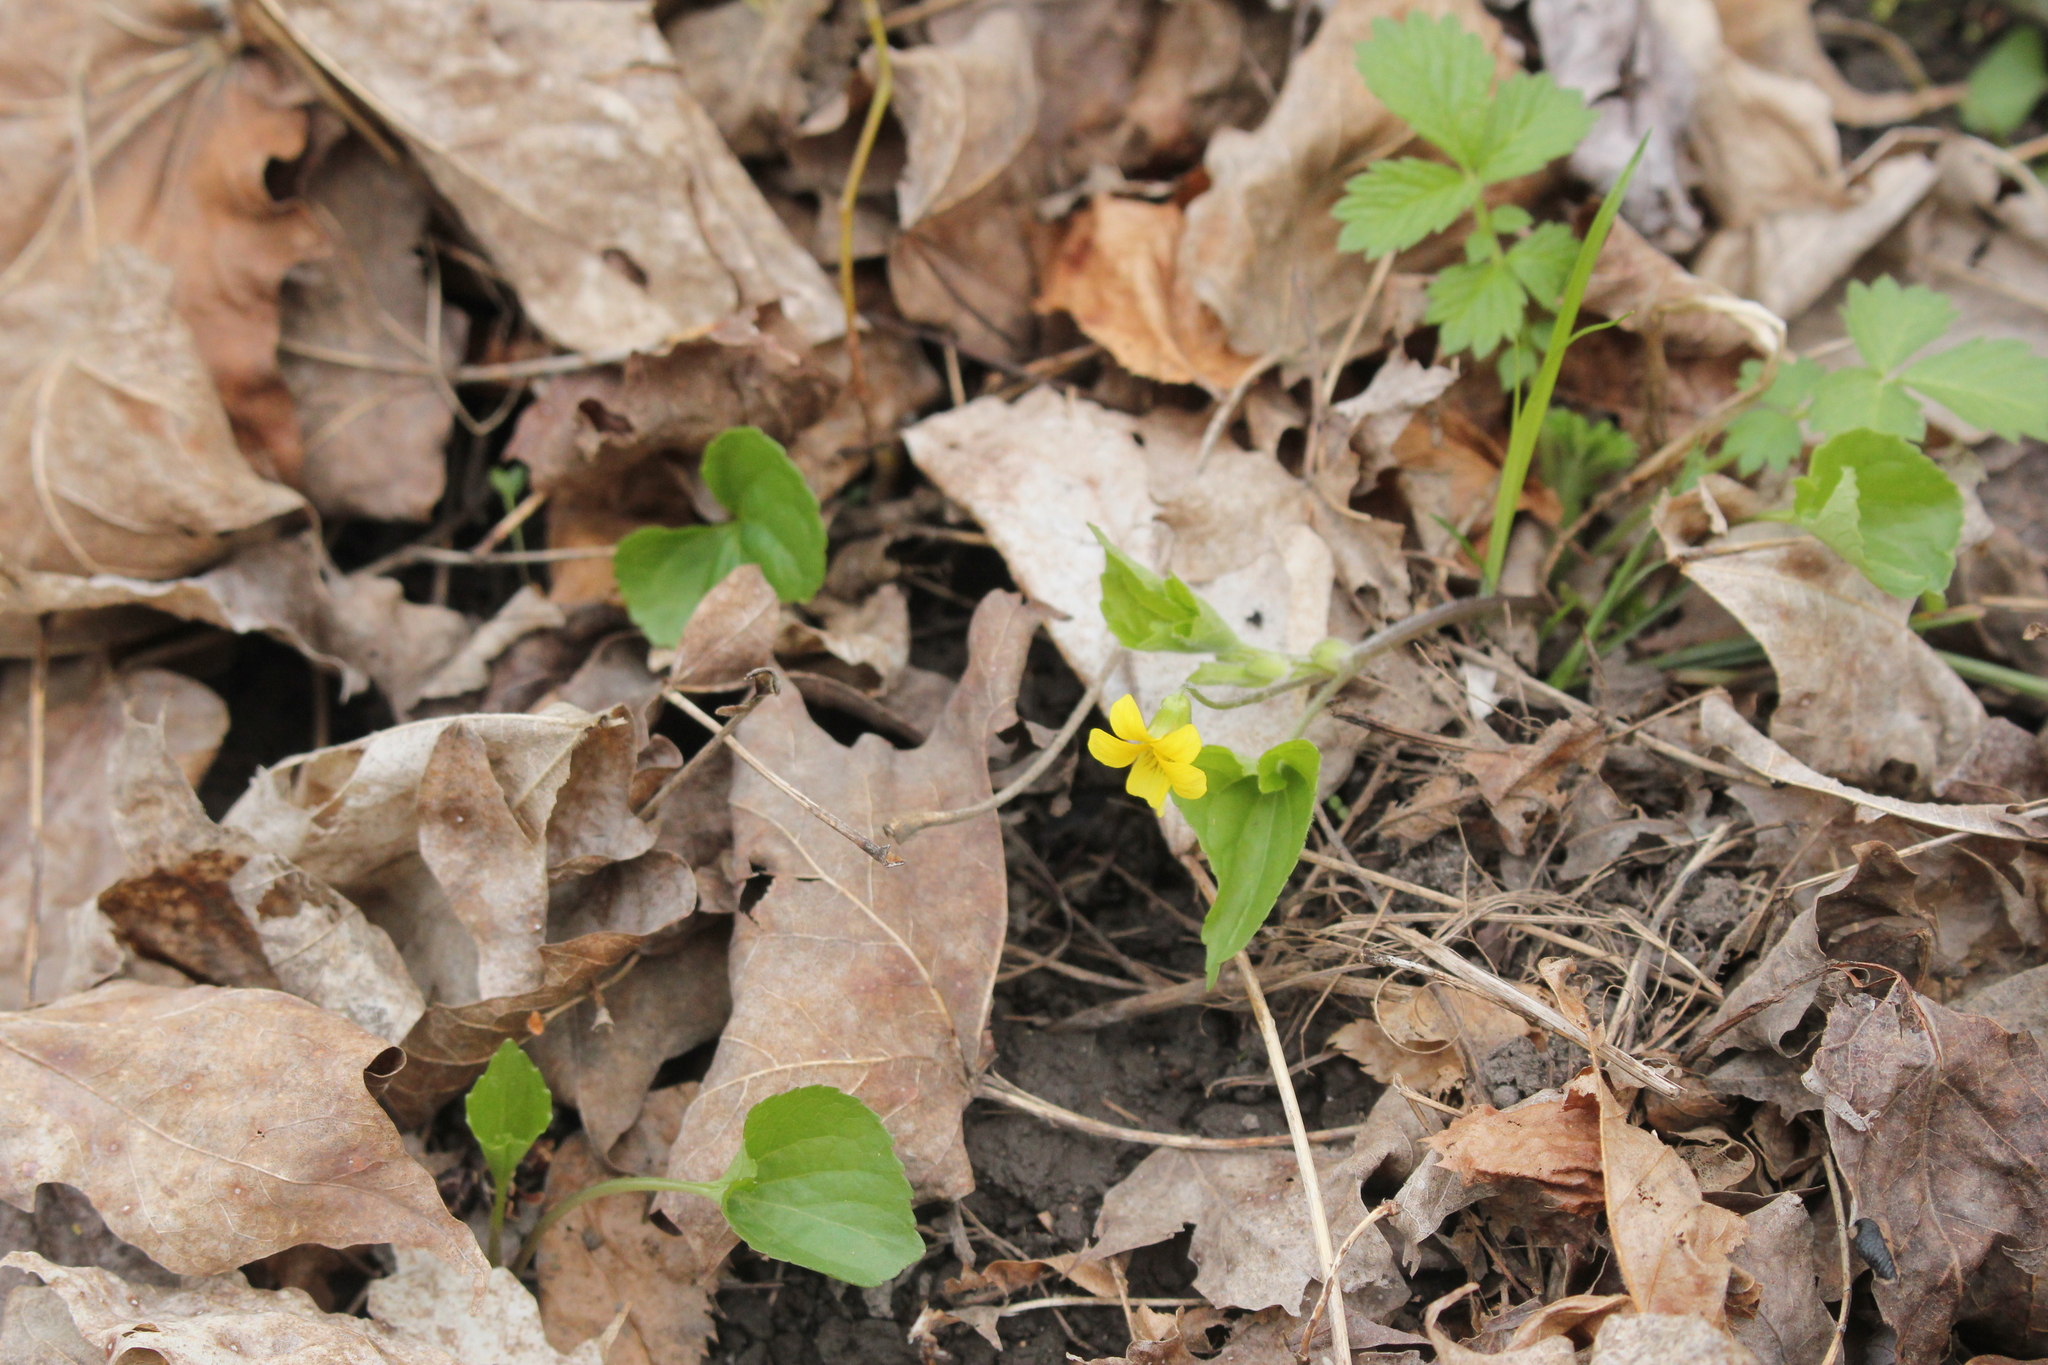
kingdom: Plantae
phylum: Tracheophyta
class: Magnoliopsida
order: Malpighiales
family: Violaceae
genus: Viola
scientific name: Viola eriocarpa
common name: Smooth yellow violet
